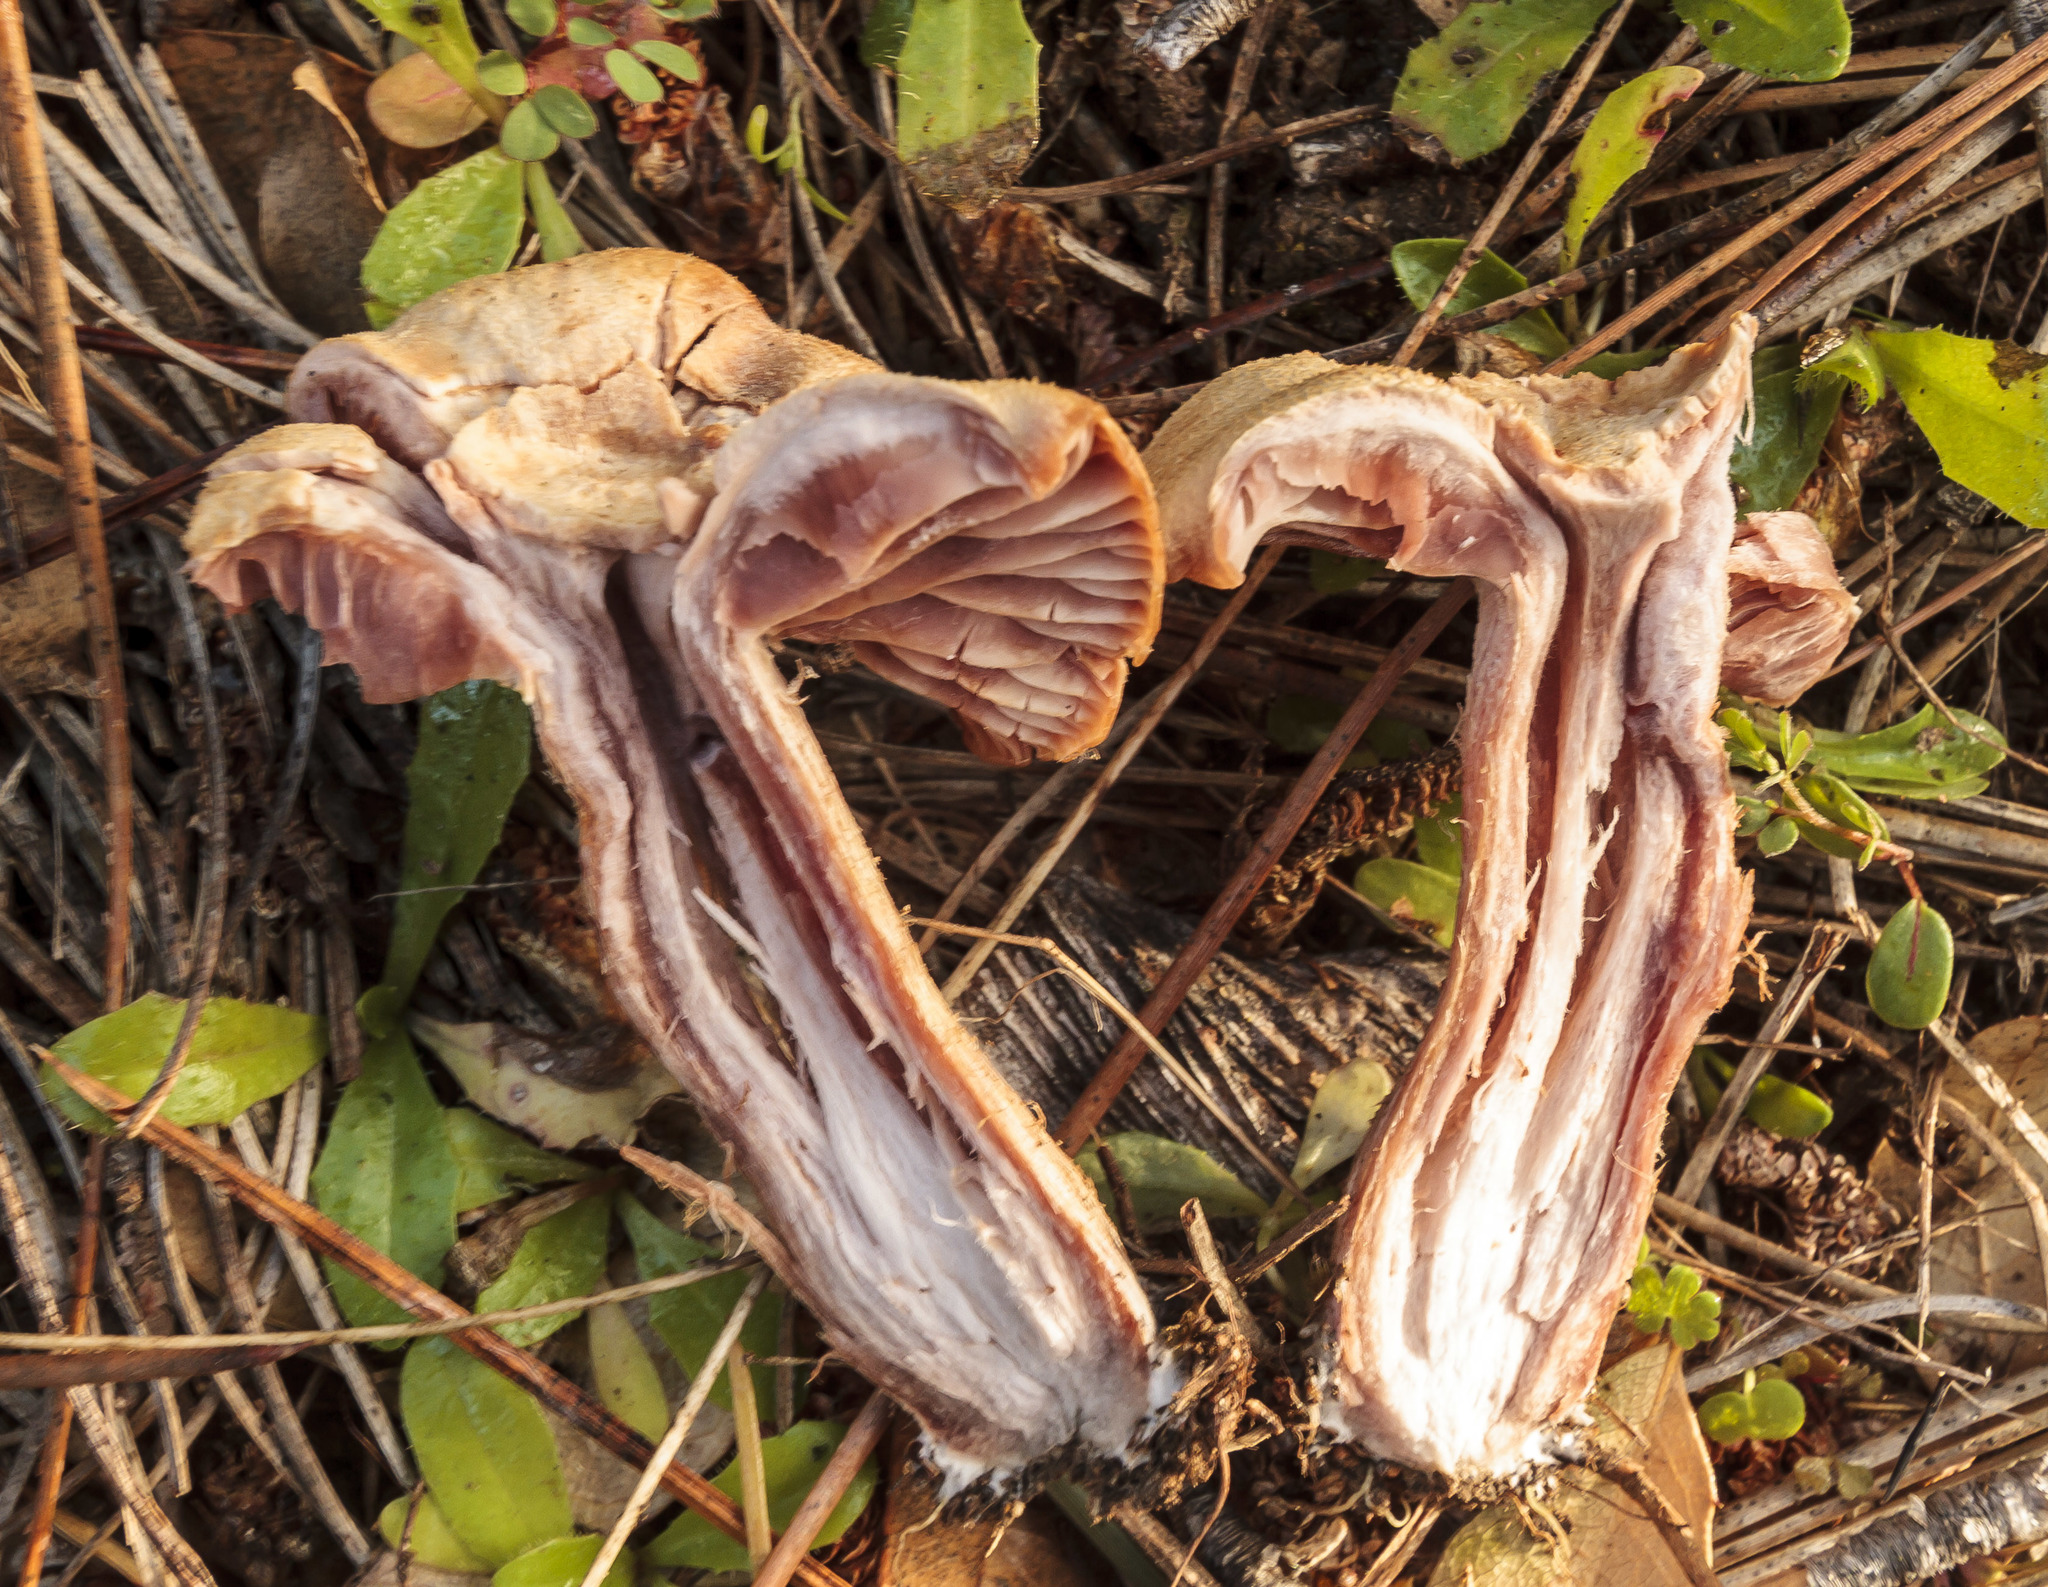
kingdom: Fungi
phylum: Basidiomycota
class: Agaricomycetes
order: Agaricales
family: Hydnangiaceae
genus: Laccaria
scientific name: Laccaria amethysteo-occidentalis
